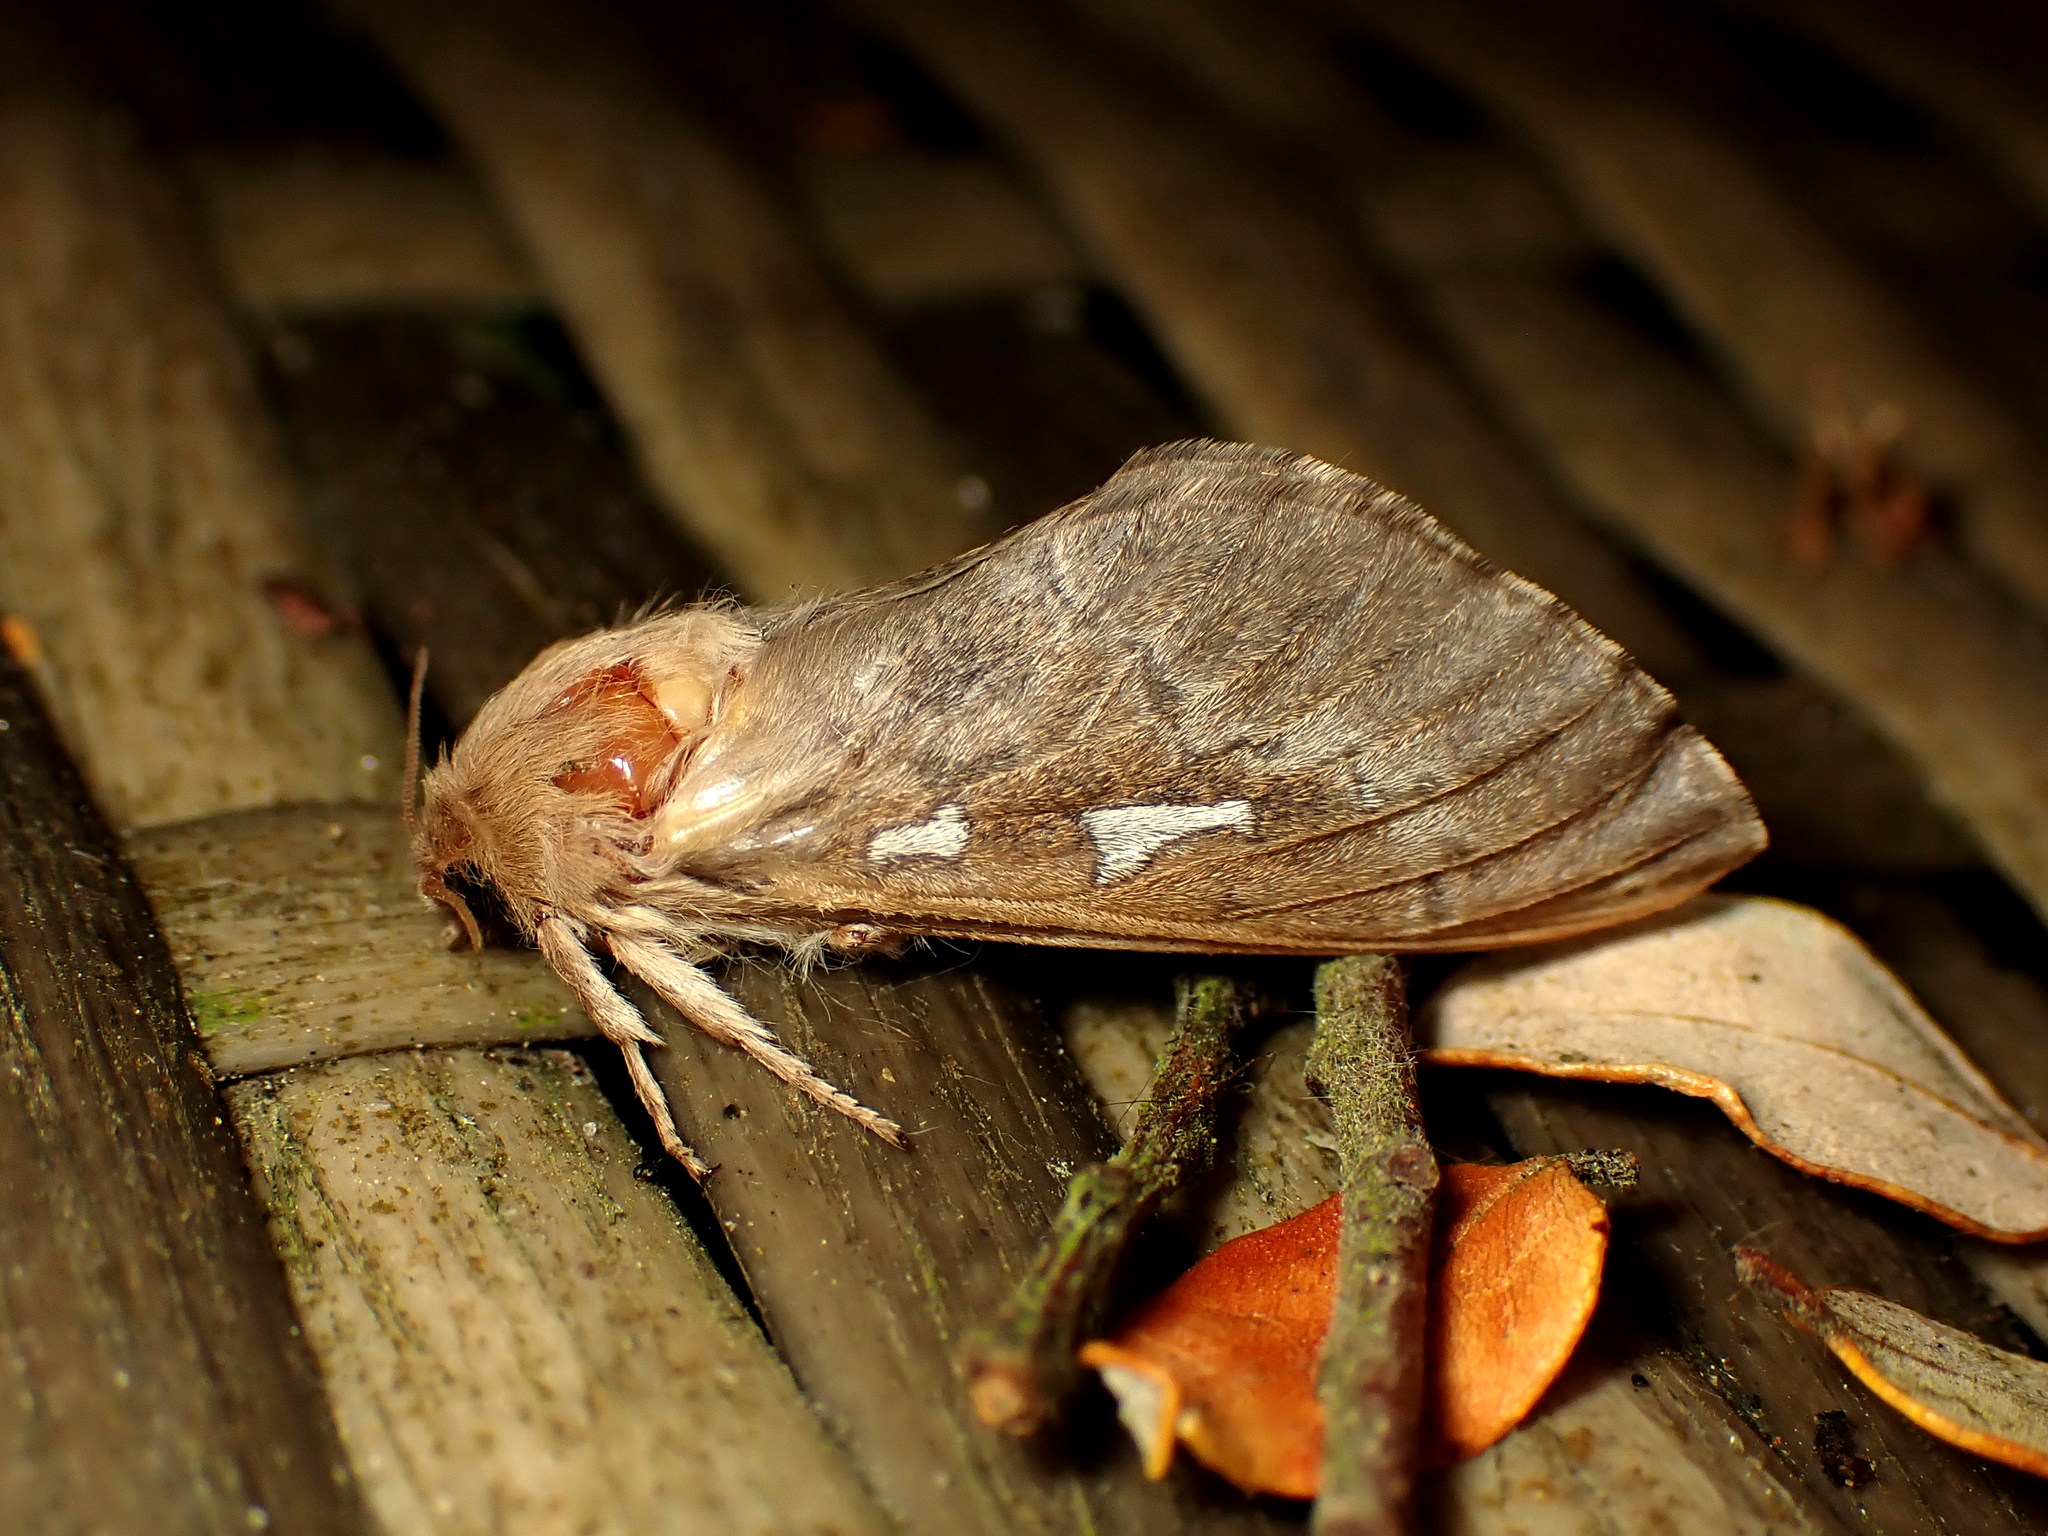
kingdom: Animalia
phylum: Arthropoda
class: Insecta
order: Lepidoptera
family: Hepialidae
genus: Wiseana
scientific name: Wiseana copularis
